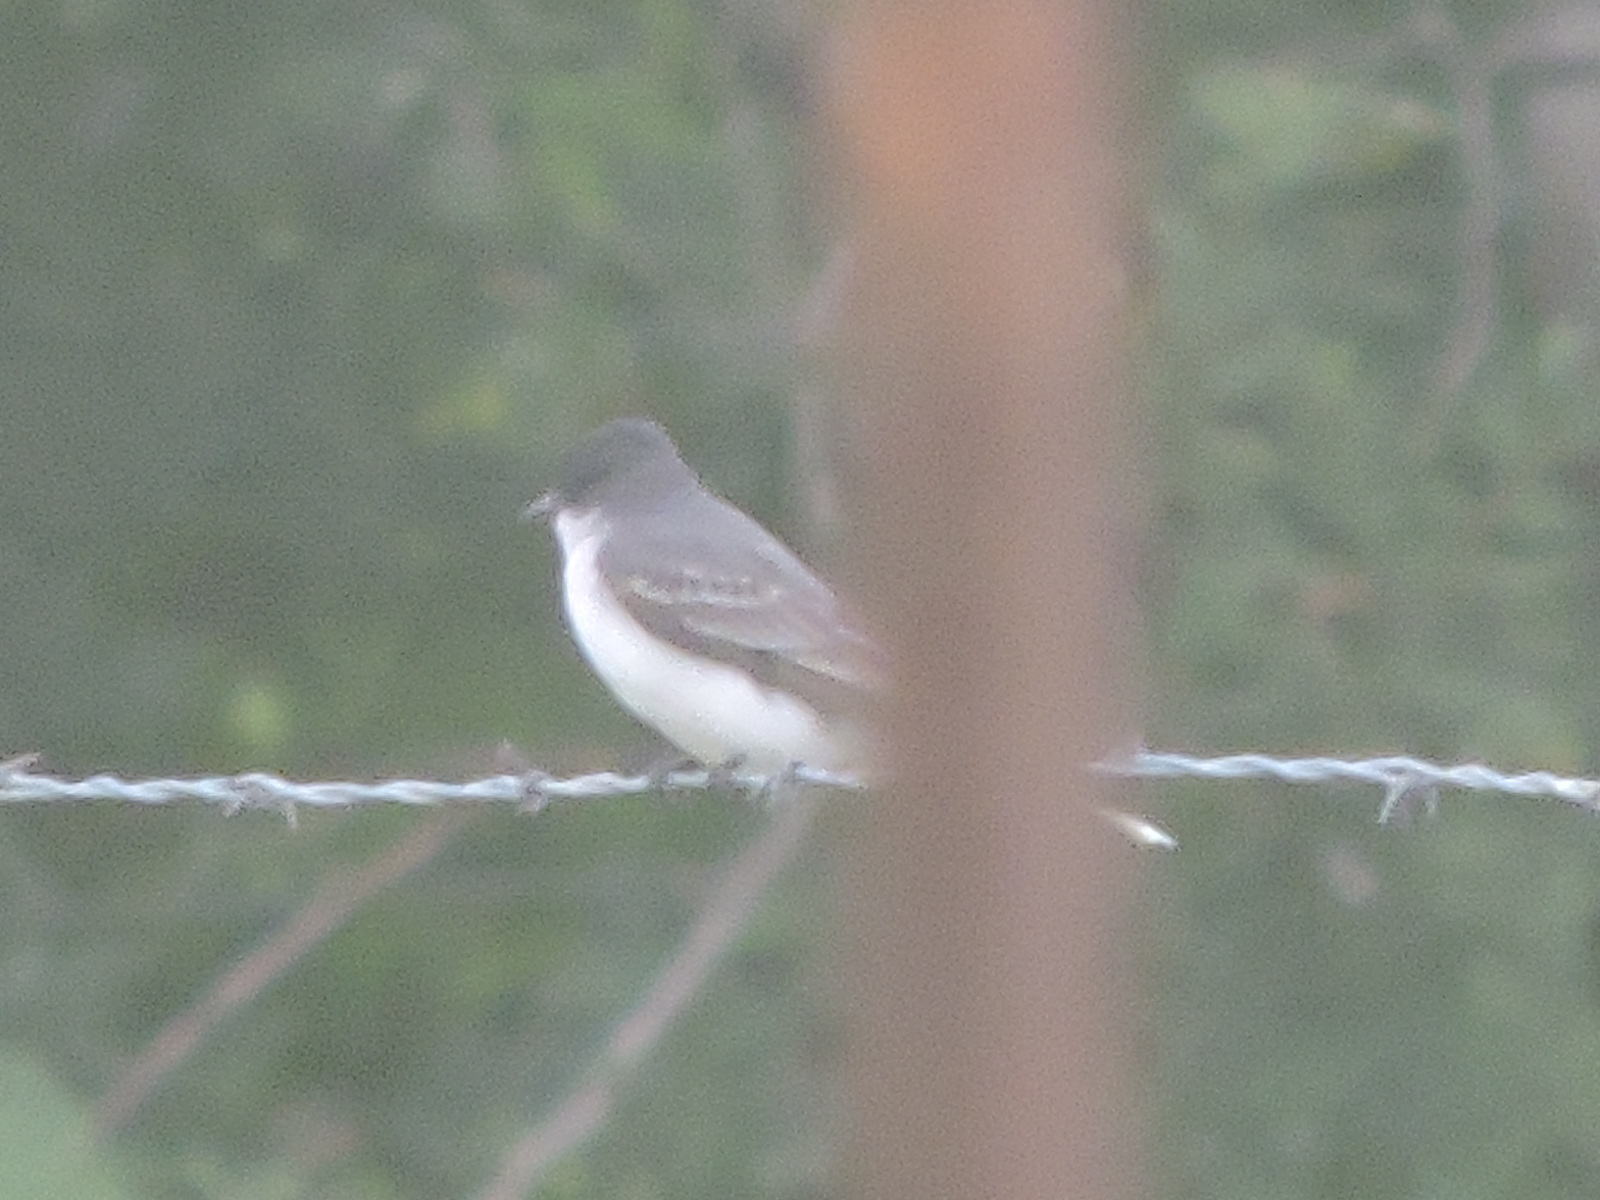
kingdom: Animalia
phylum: Chordata
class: Aves
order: Passeriformes
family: Tyrannidae
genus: Tyrannus
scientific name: Tyrannus tyrannus
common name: Eastern kingbird
